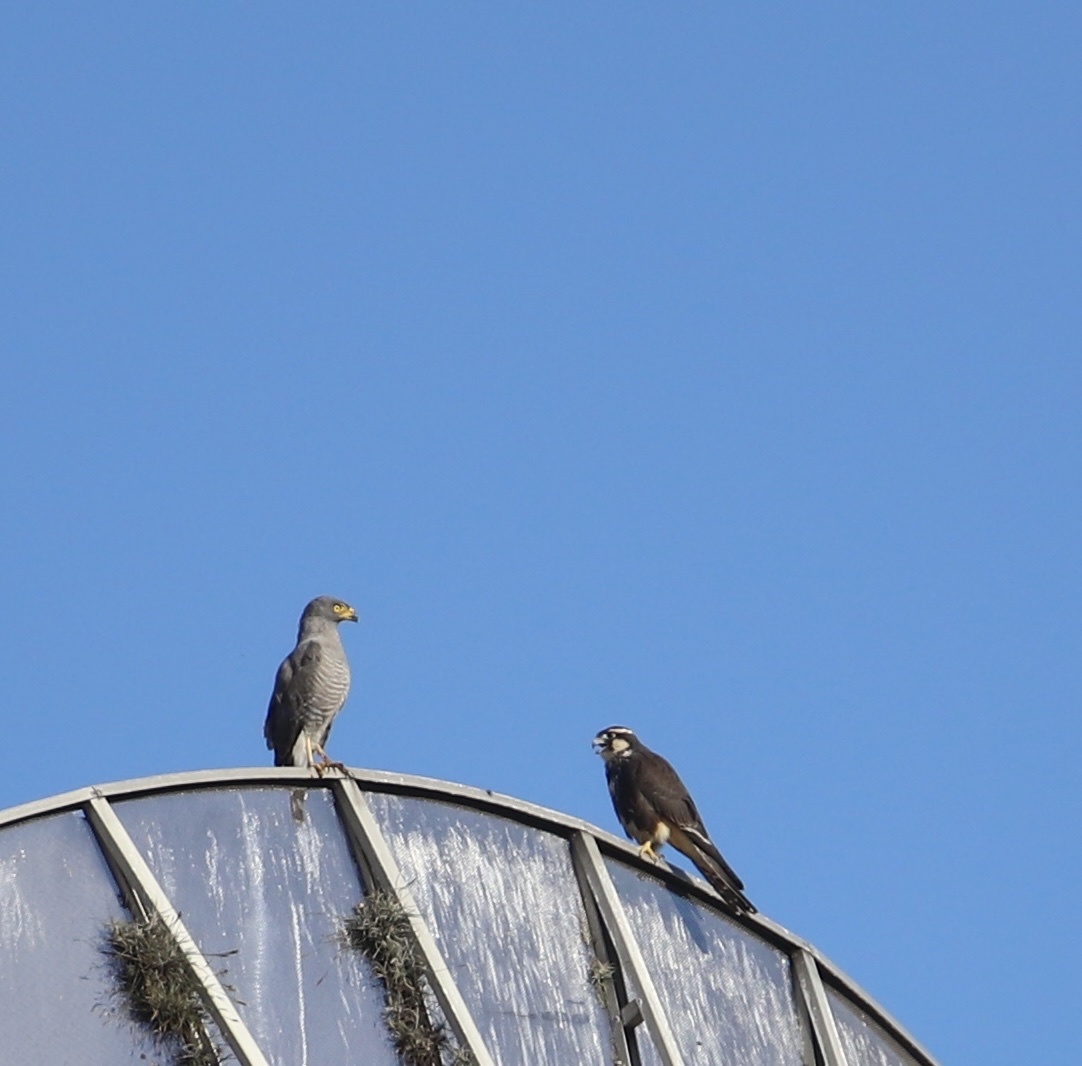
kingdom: Animalia
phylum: Chordata
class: Aves
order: Falconiformes
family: Falconidae
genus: Falco
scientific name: Falco femoralis
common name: Aplomado falcon
